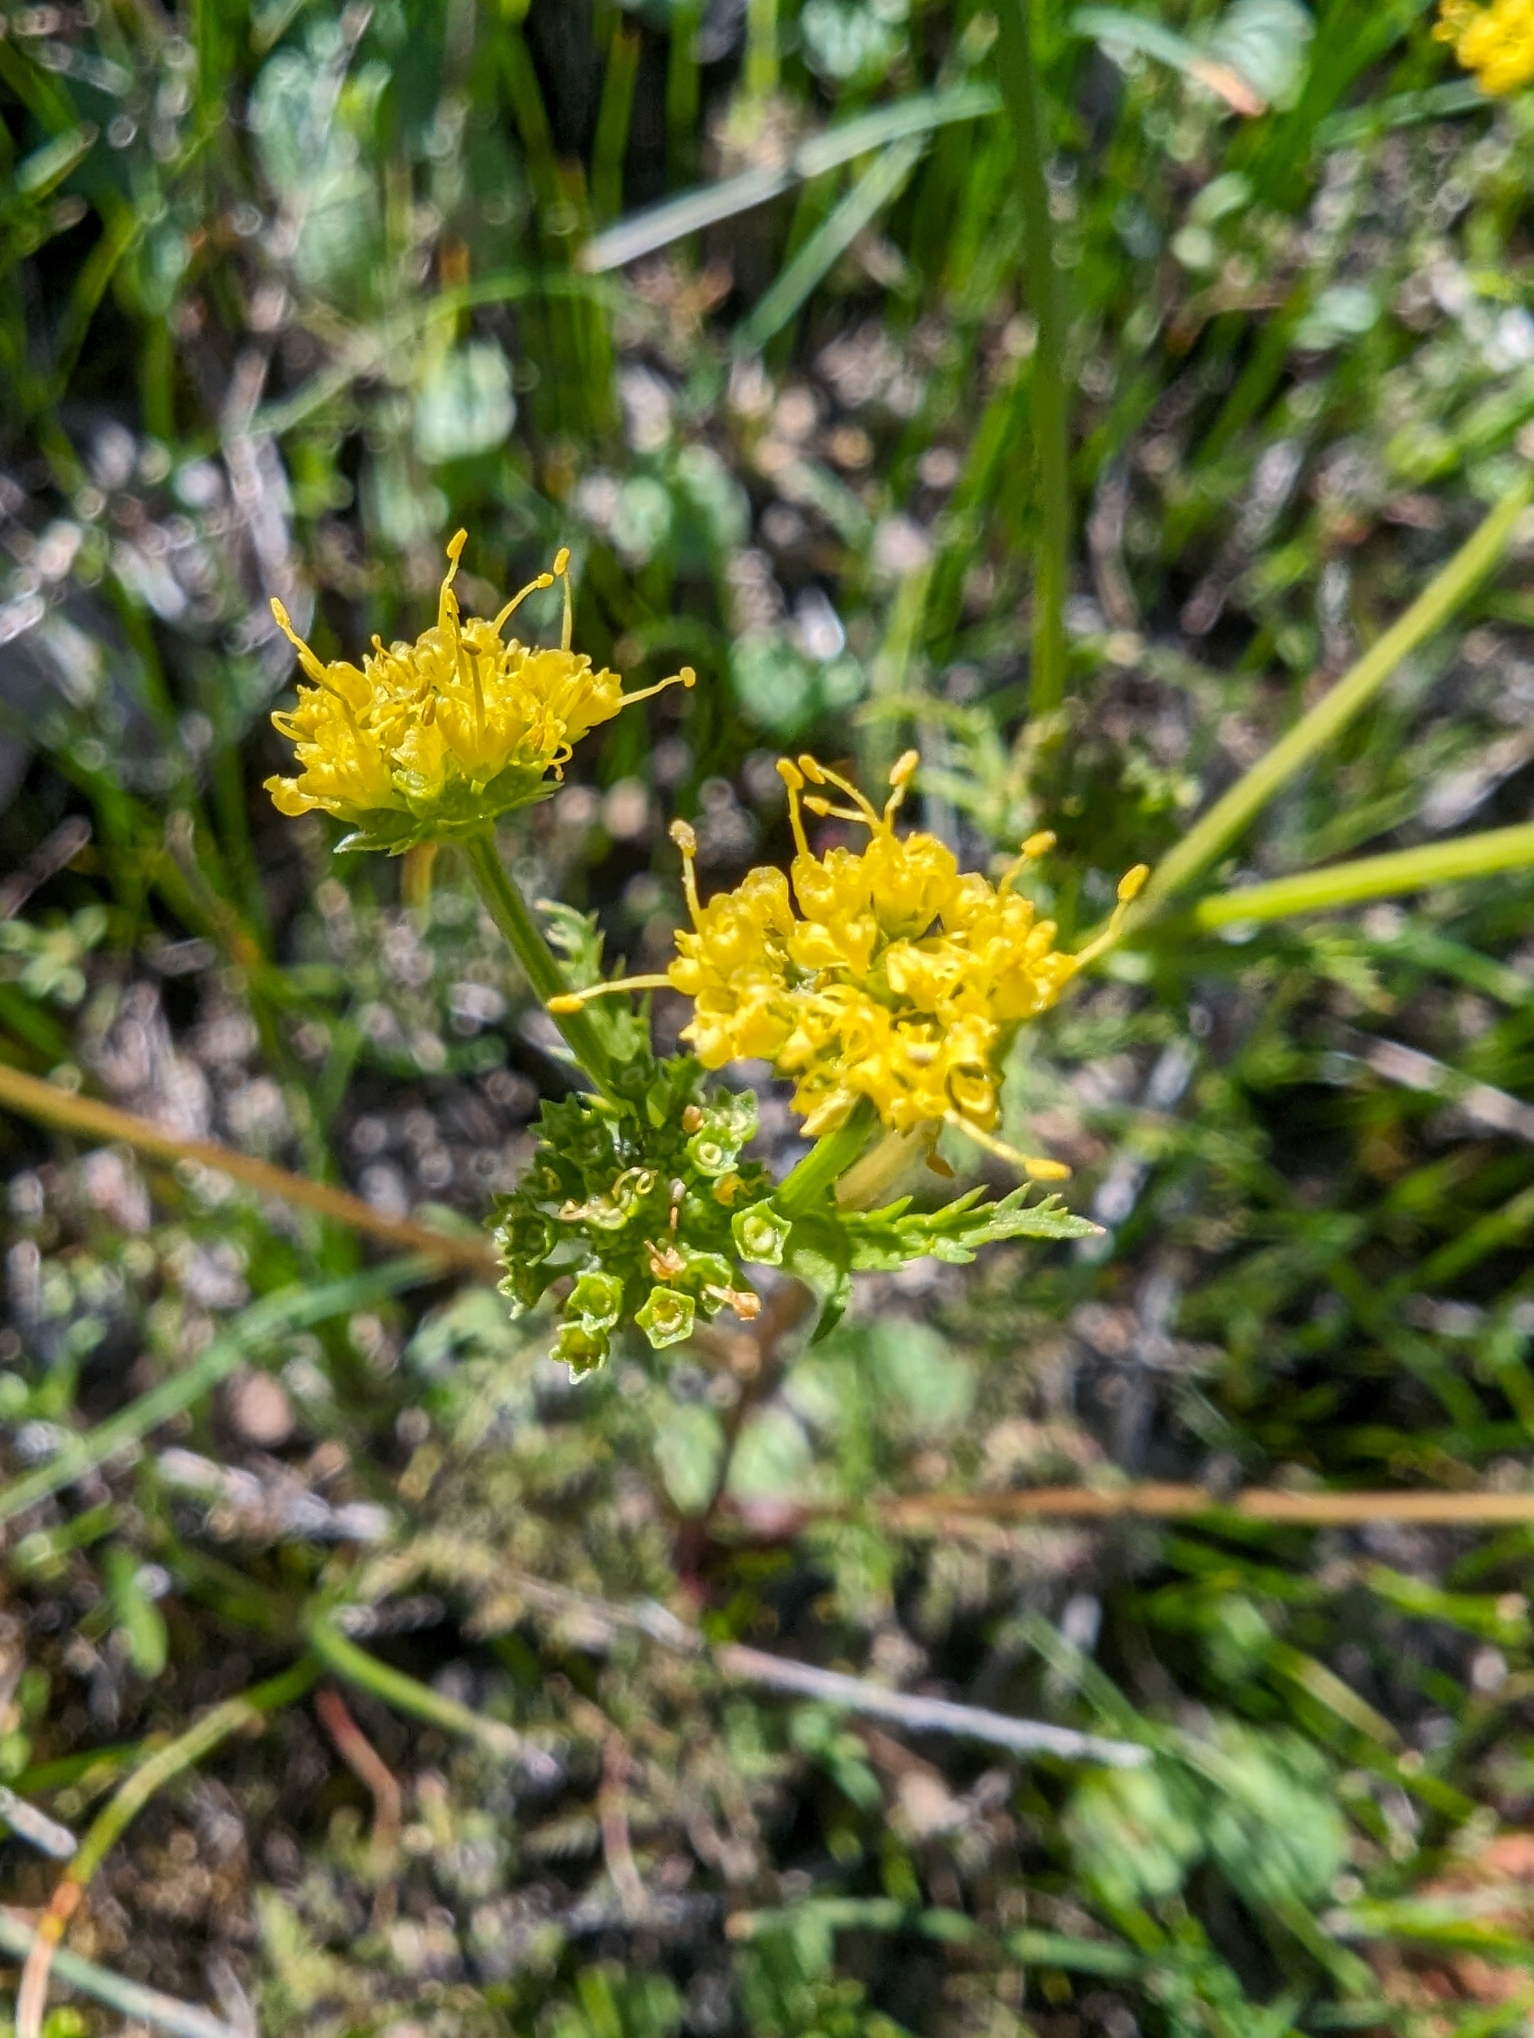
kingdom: Plantae
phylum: Tracheophyta
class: Magnoliopsida
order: Apiales
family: Apiaceae
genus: Sanicula
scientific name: Sanicula tuberosa
